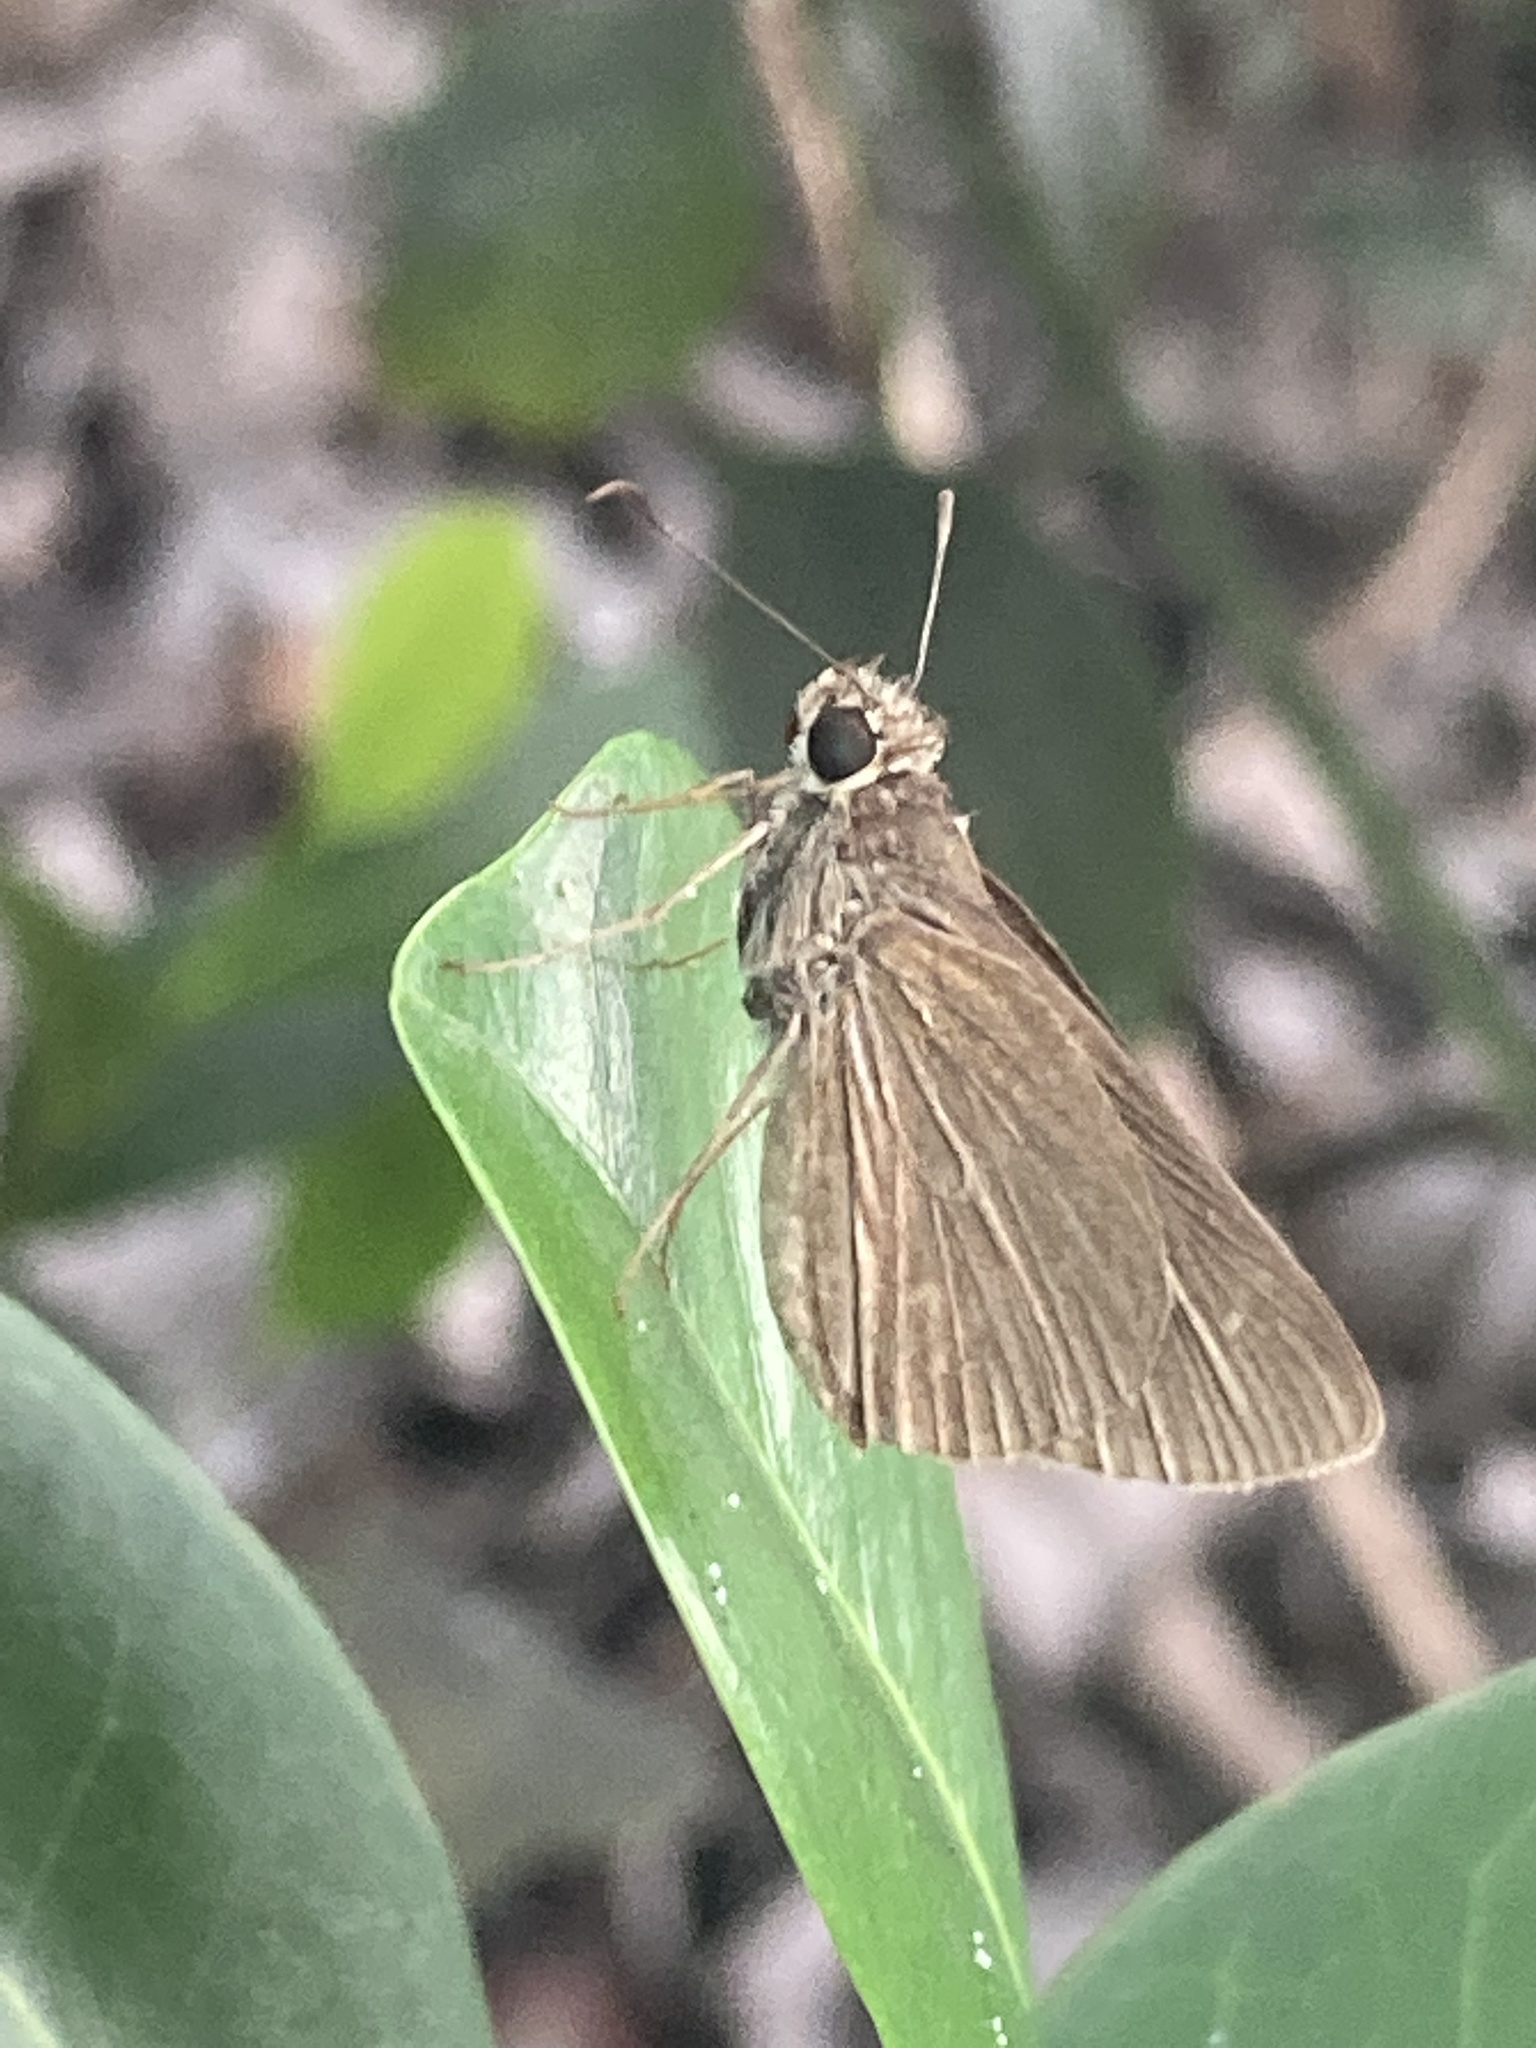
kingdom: Animalia
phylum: Arthropoda
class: Insecta
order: Lepidoptera
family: Hesperiidae
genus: Cymaenes
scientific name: Cymaenes tripunctus
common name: Dingy dotted skipper
